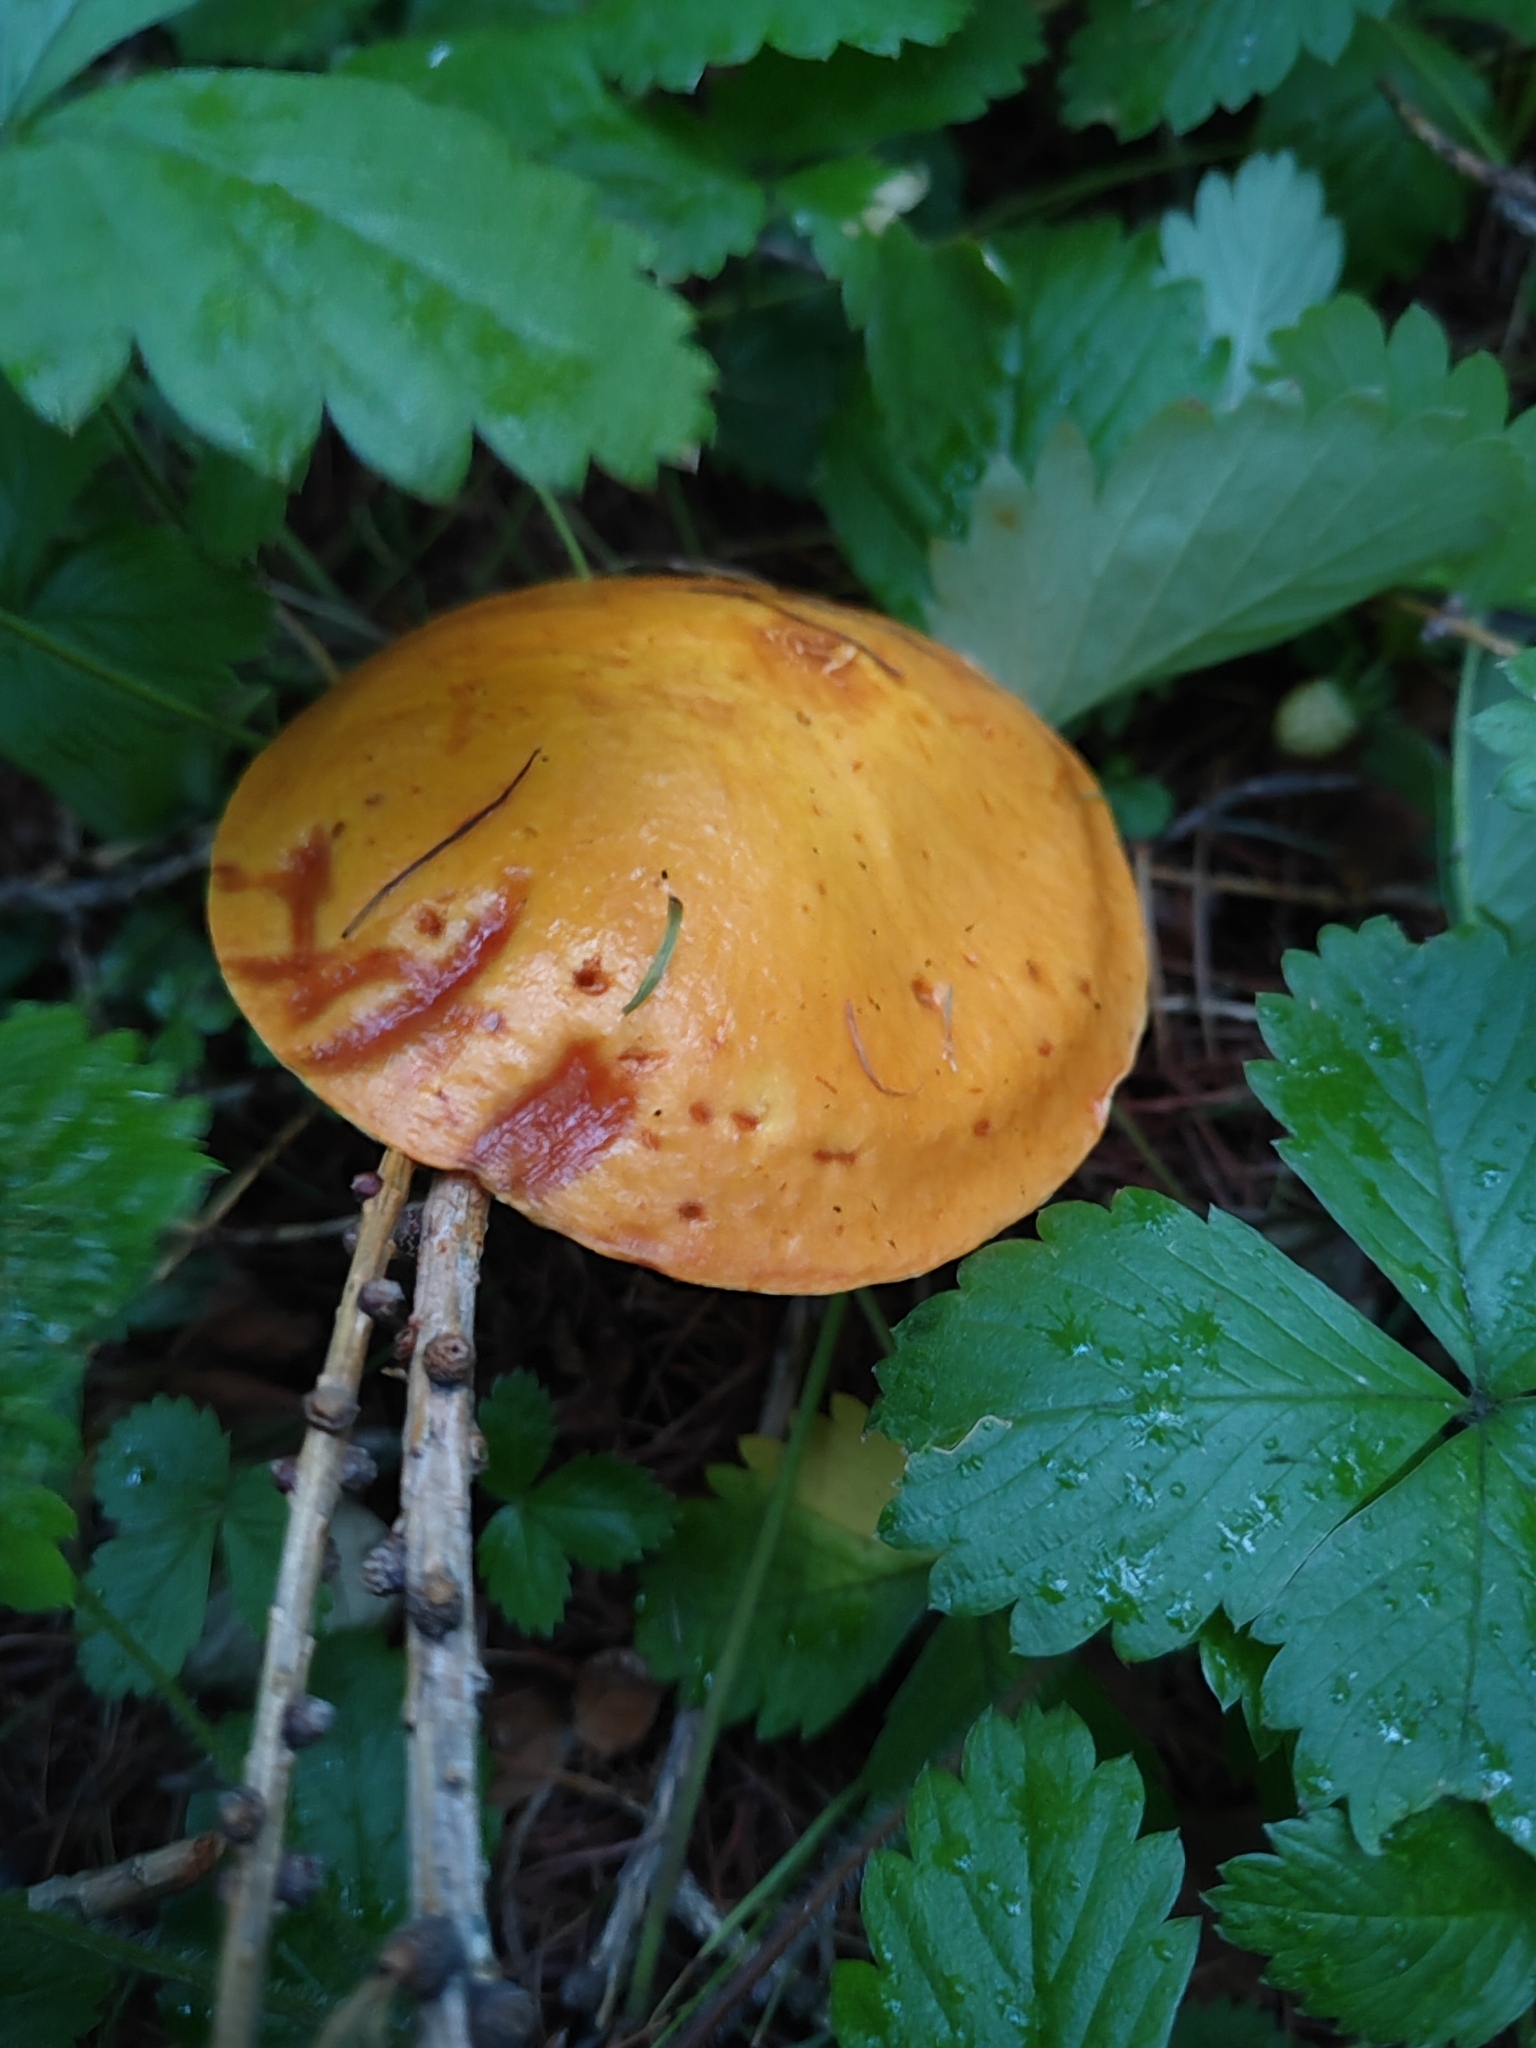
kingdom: Fungi
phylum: Basidiomycota
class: Agaricomycetes
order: Boletales
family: Suillaceae
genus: Suillus
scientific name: Suillus grevillei
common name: Larch bolete
